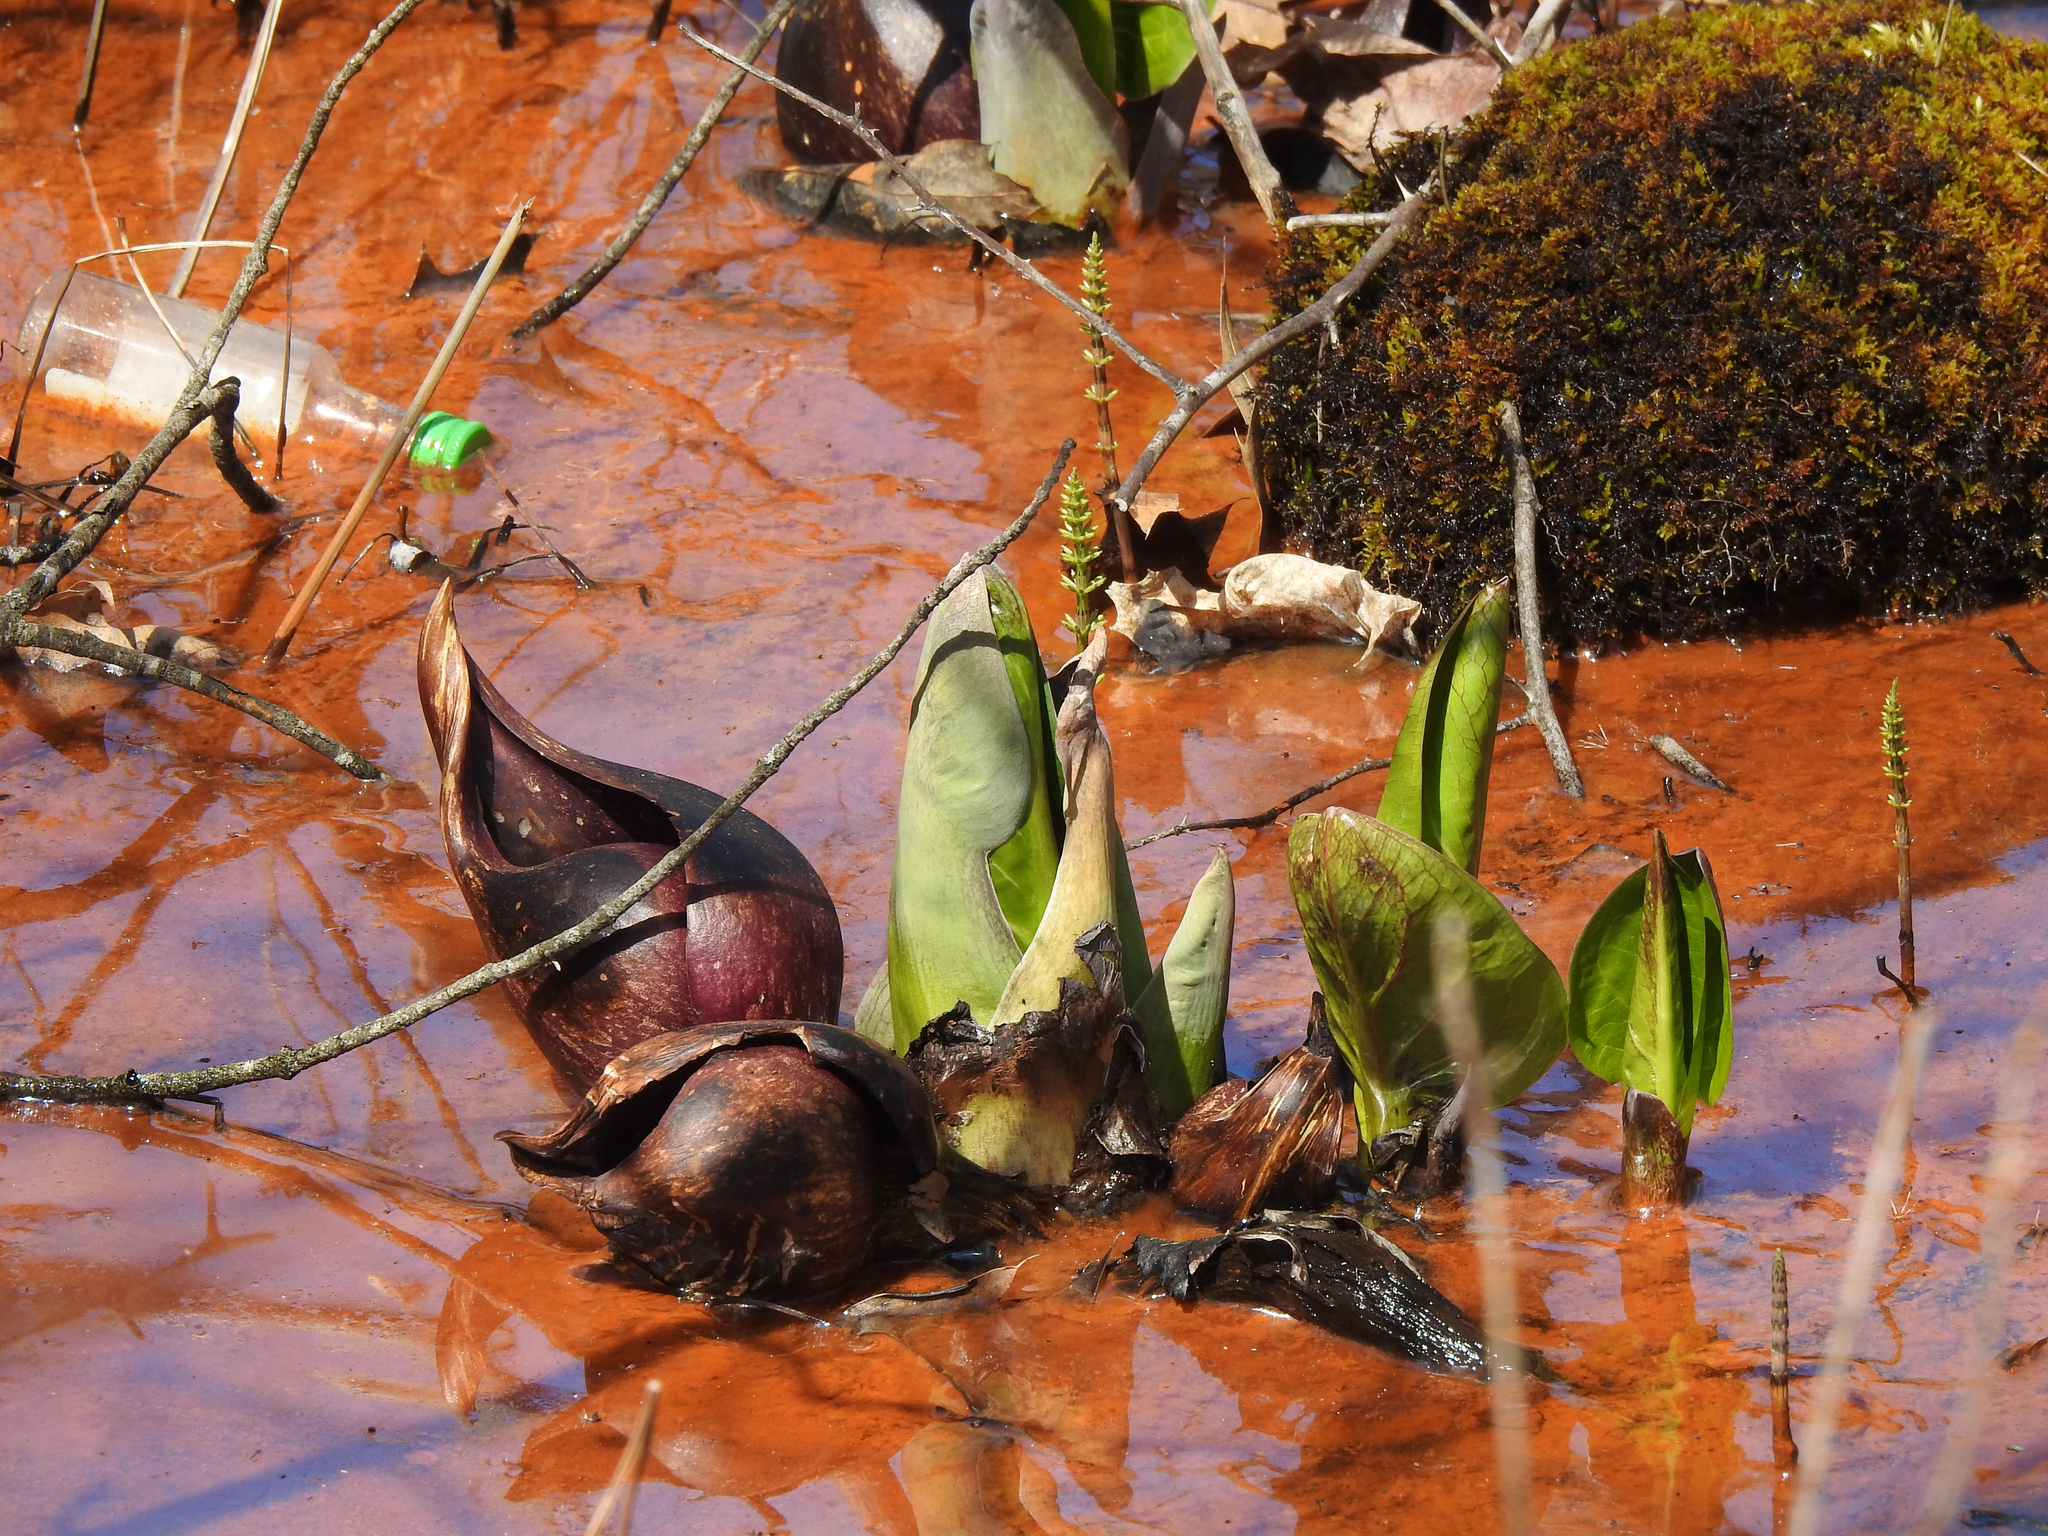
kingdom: Plantae
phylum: Tracheophyta
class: Liliopsida
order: Alismatales
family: Araceae
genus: Symplocarpus
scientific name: Symplocarpus foetidus
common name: Eastern skunk cabbage
